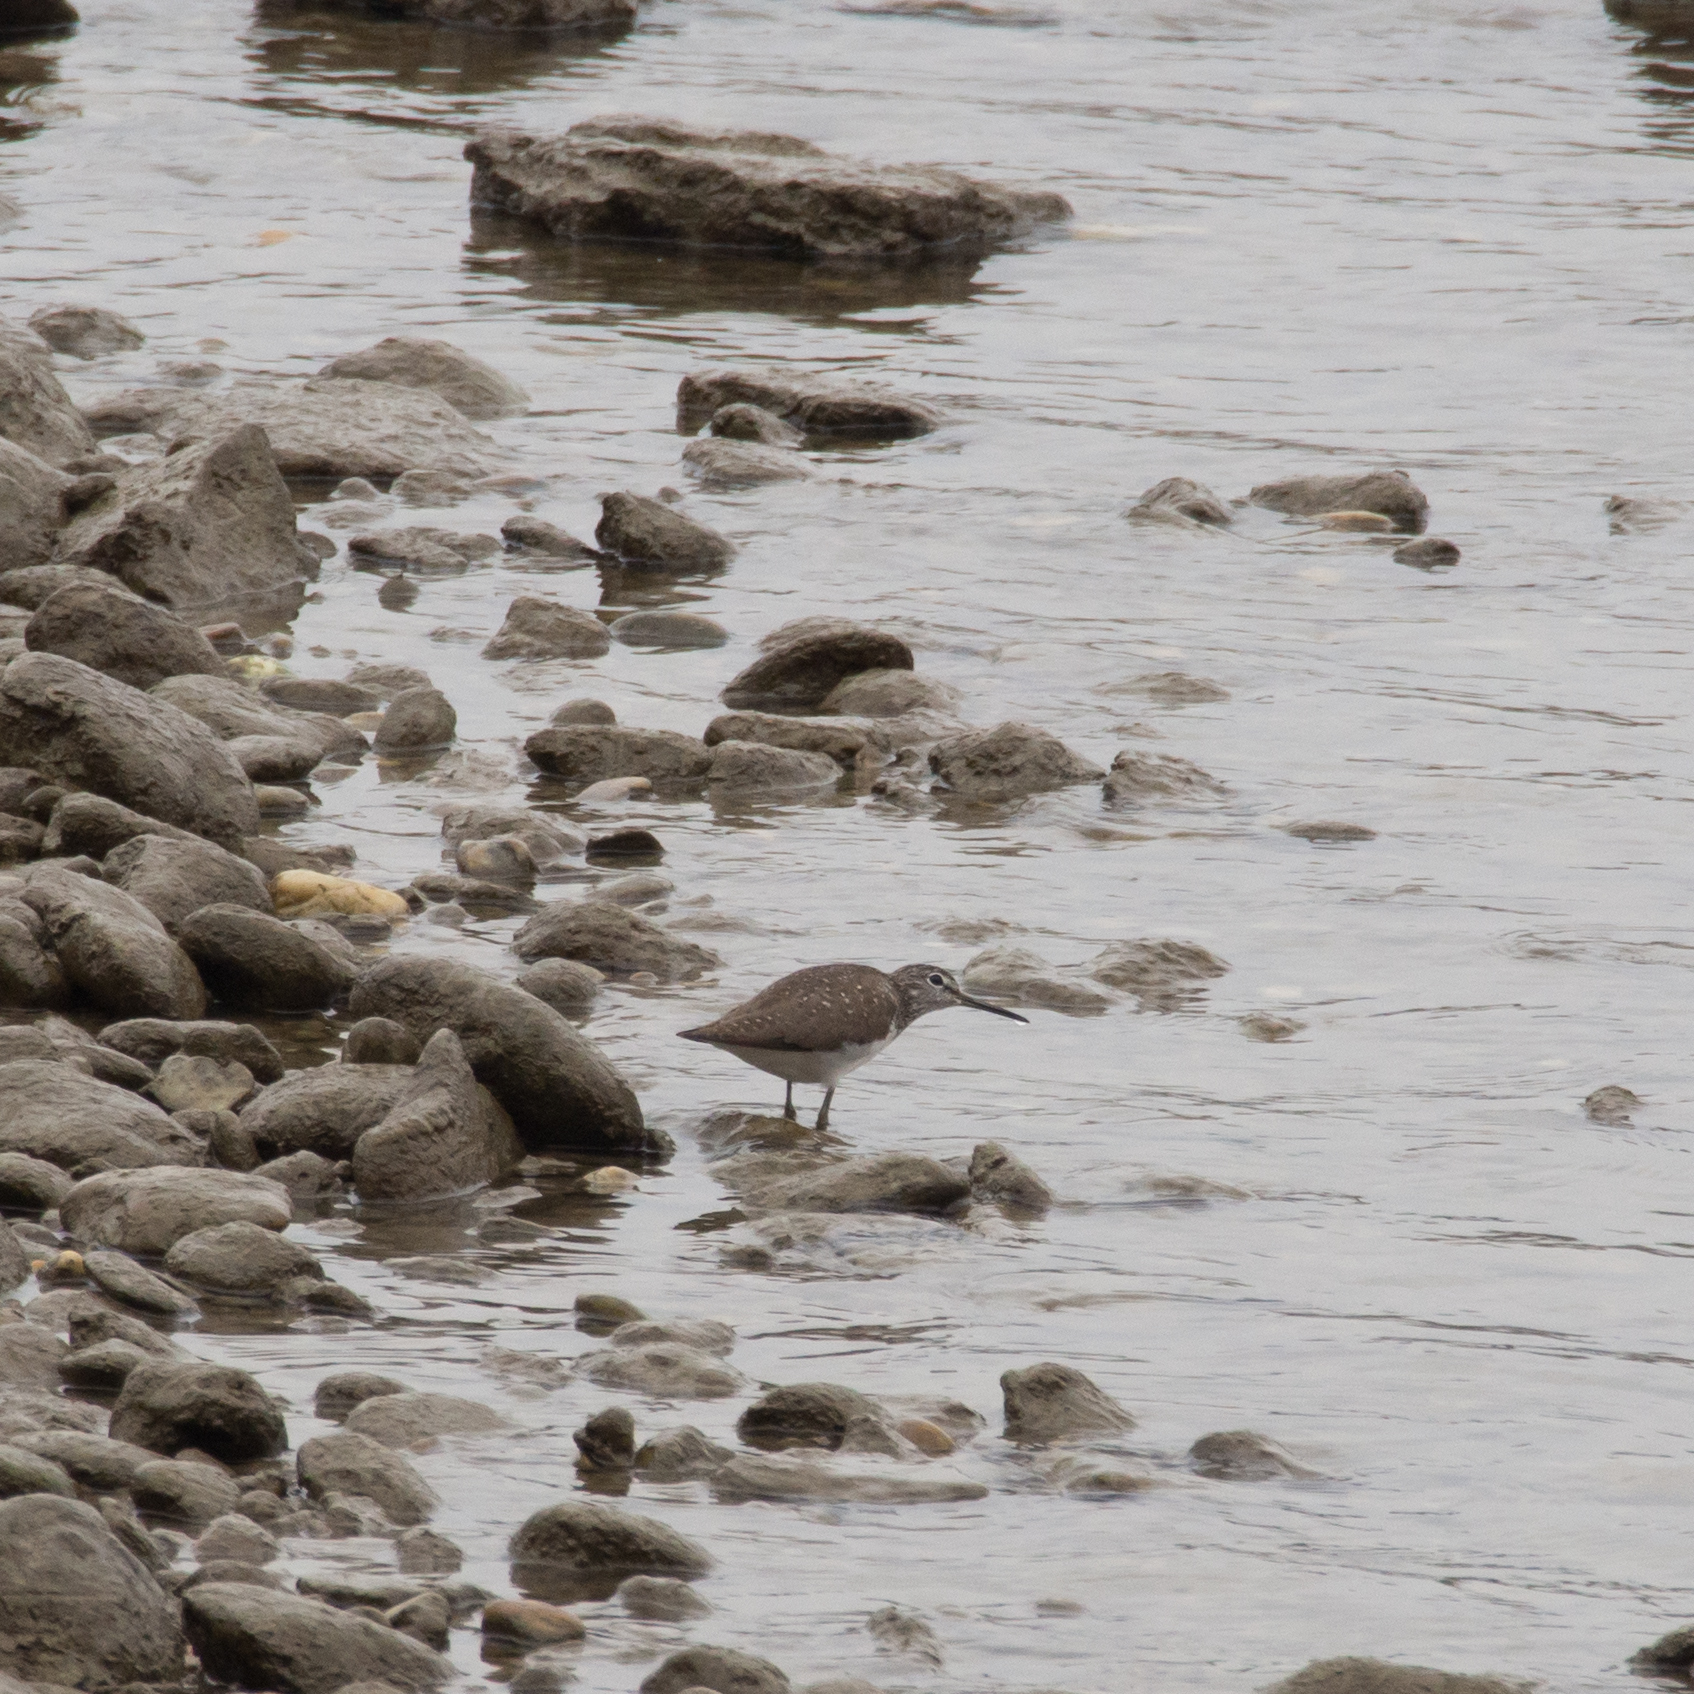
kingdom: Animalia
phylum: Chordata
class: Aves
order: Charadriiformes
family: Scolopacidae
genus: Tringa
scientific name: Tringa ochropus
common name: Green sandpiper
